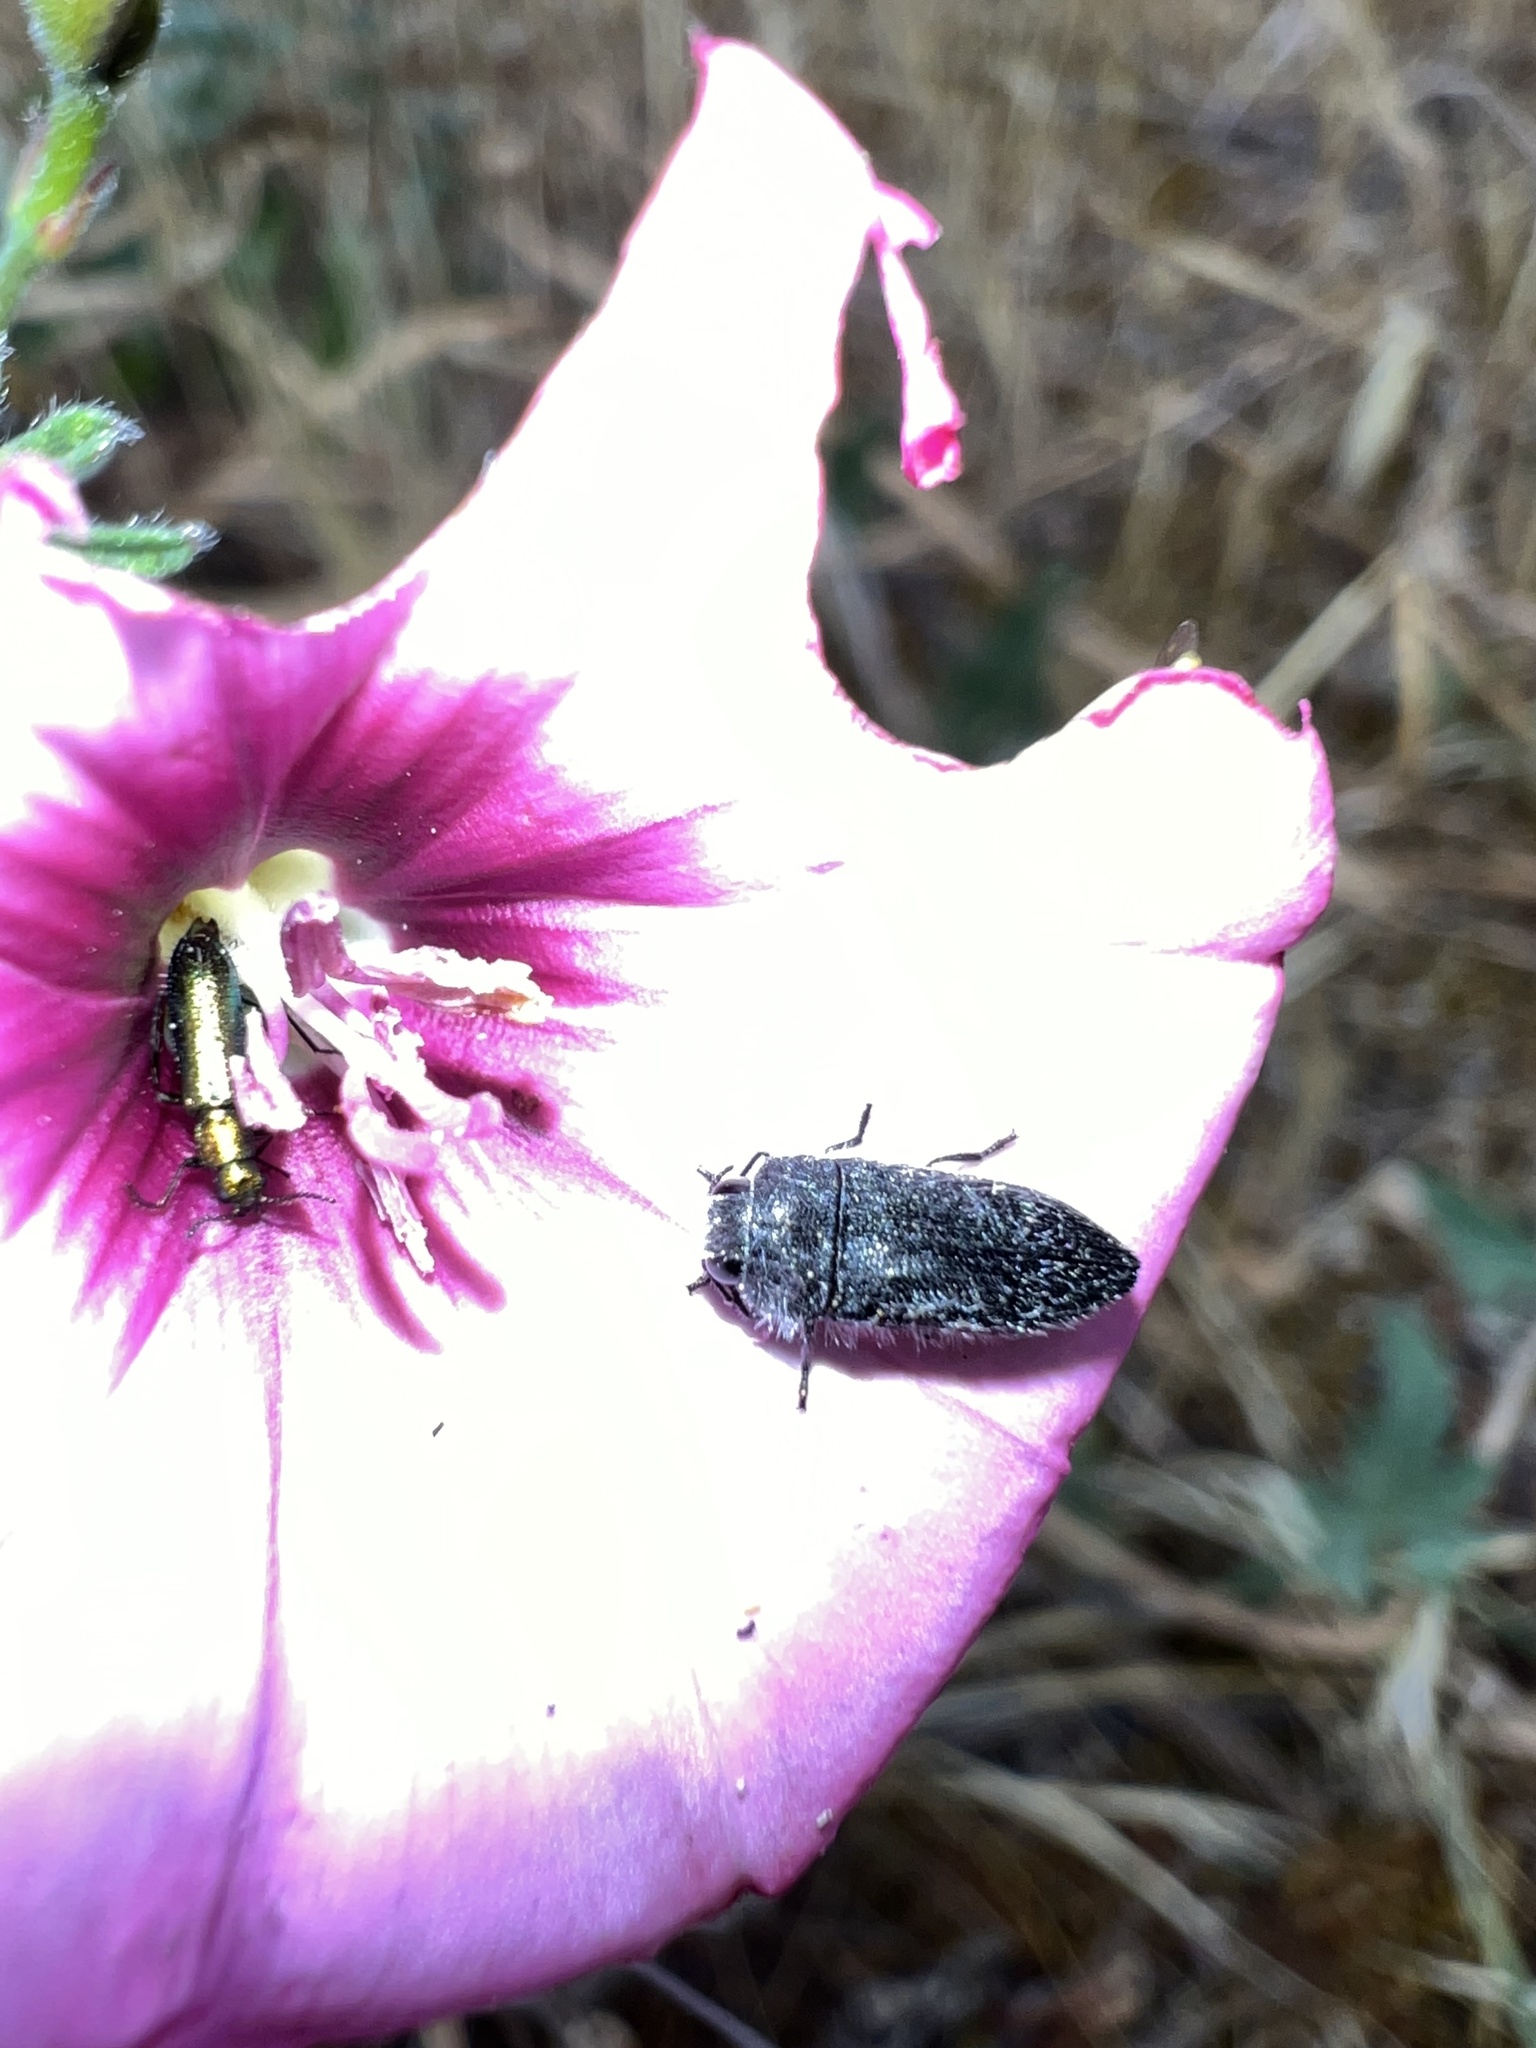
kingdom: Animalia
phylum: Arthropoda
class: Insecta
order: Coleoptera
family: Buprestidae
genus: Acmaeodera
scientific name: Acmaeodera cylindrica
